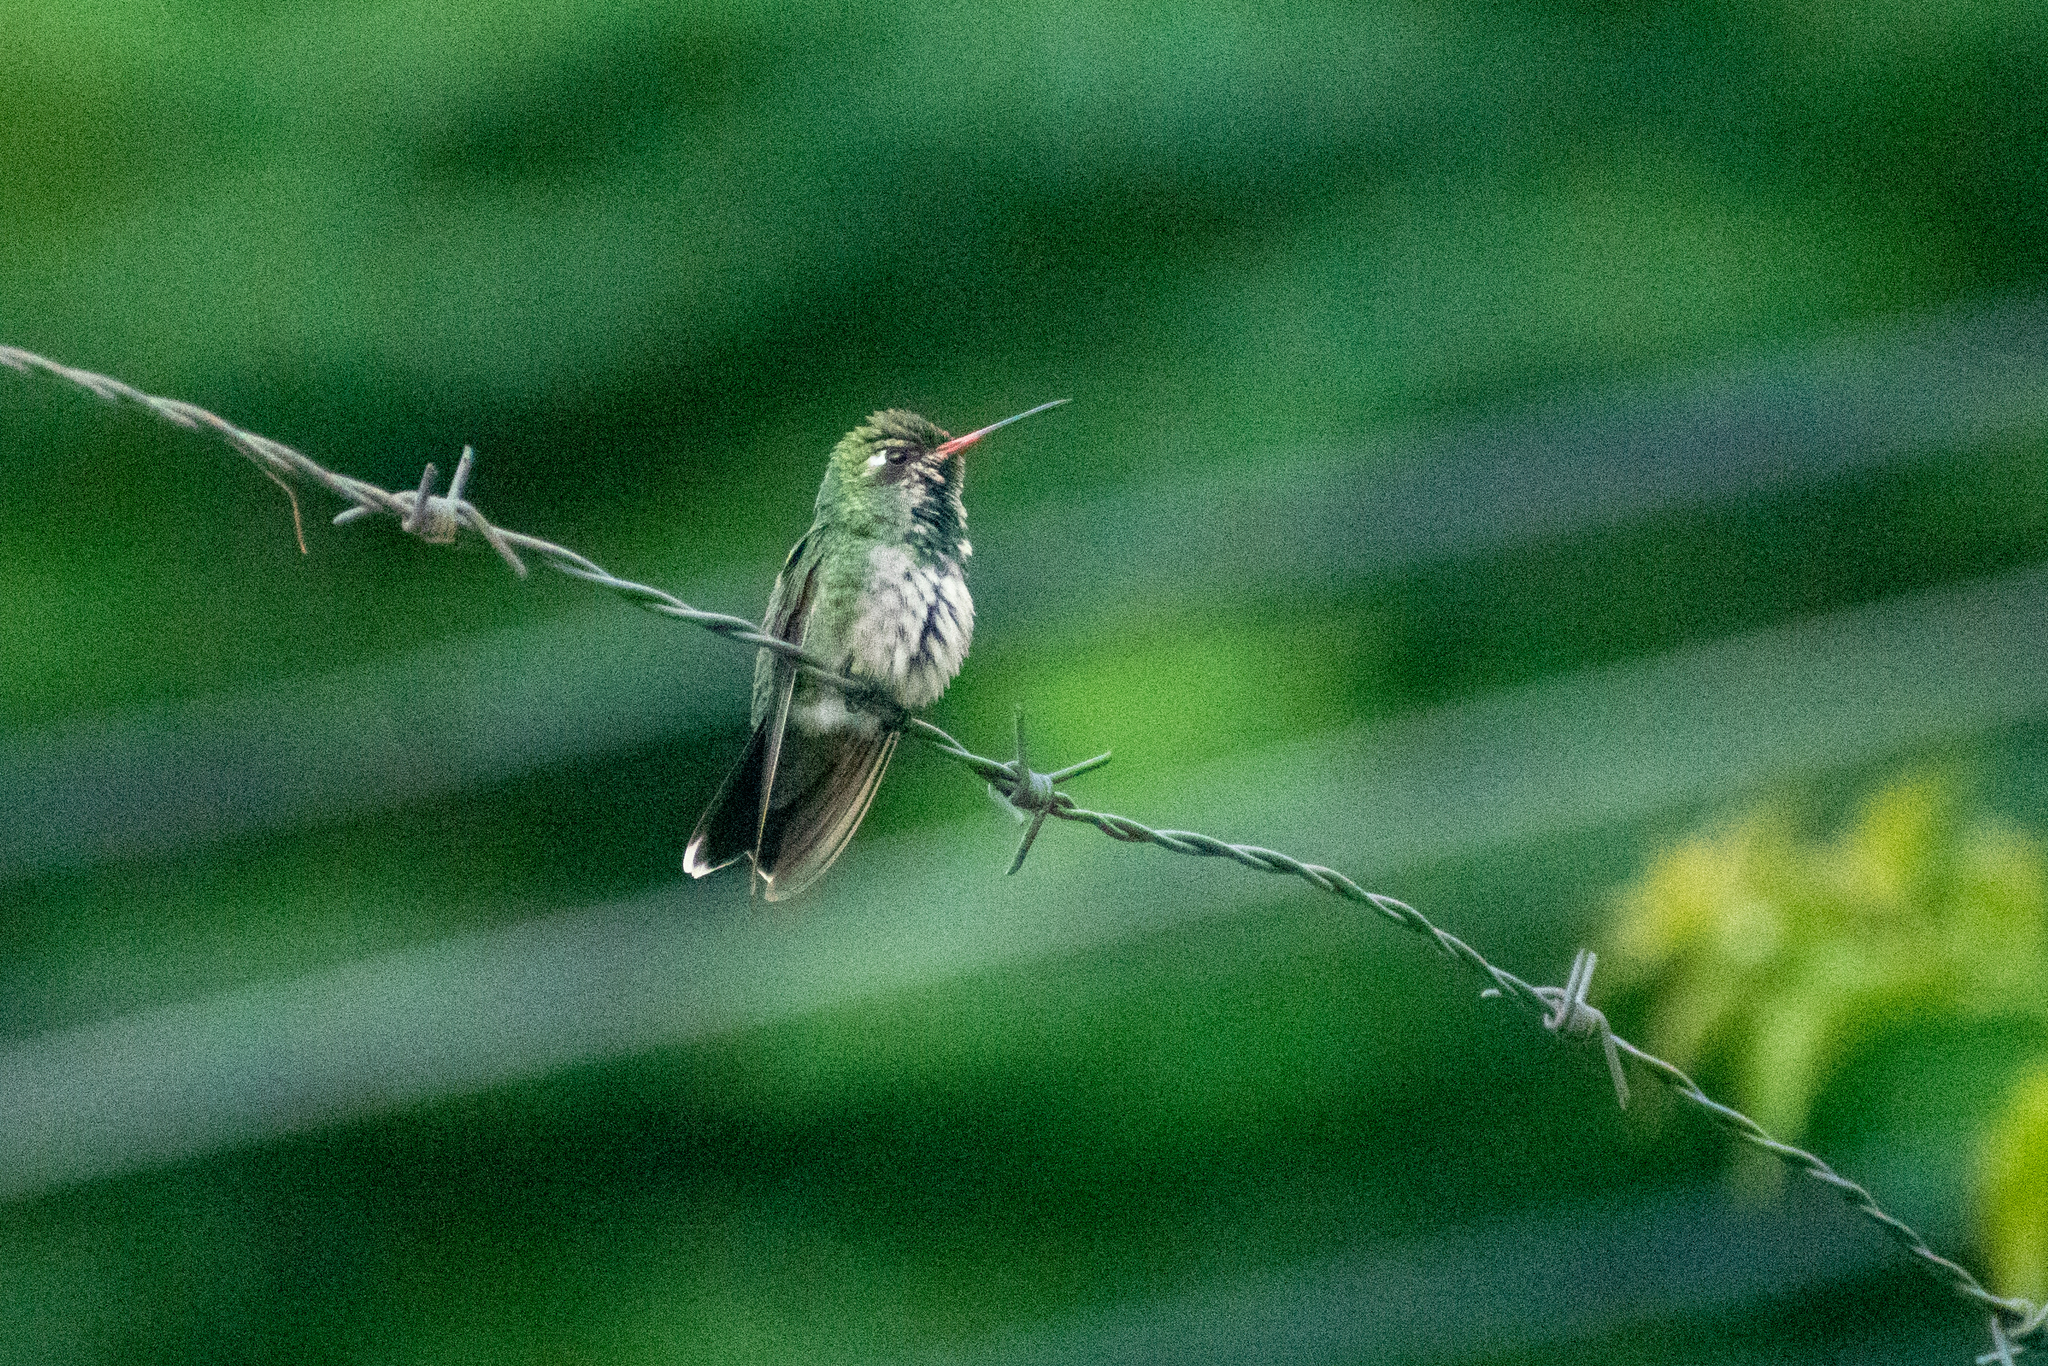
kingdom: Animalia
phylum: Chordata
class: Aves
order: Apodiformes
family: Trochilidae
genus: Chlorostilbon
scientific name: Chlorostilbon lucidus
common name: Glittering-bellied emerald
